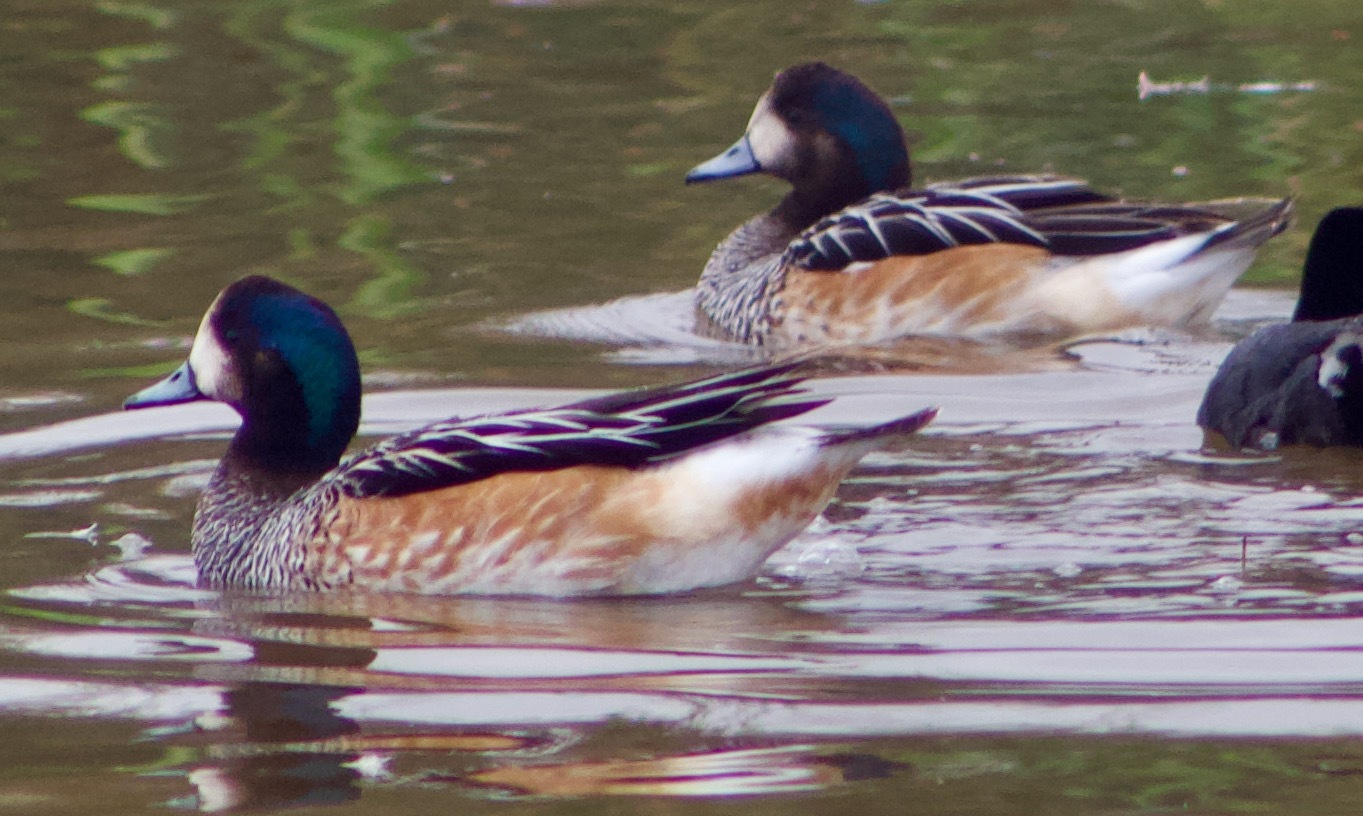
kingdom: Animalia
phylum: Chordata
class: Aves
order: Anseriformes
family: Anatidae
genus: Mareca
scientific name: Mareca sibilatrix
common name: Chiloe wigeon
